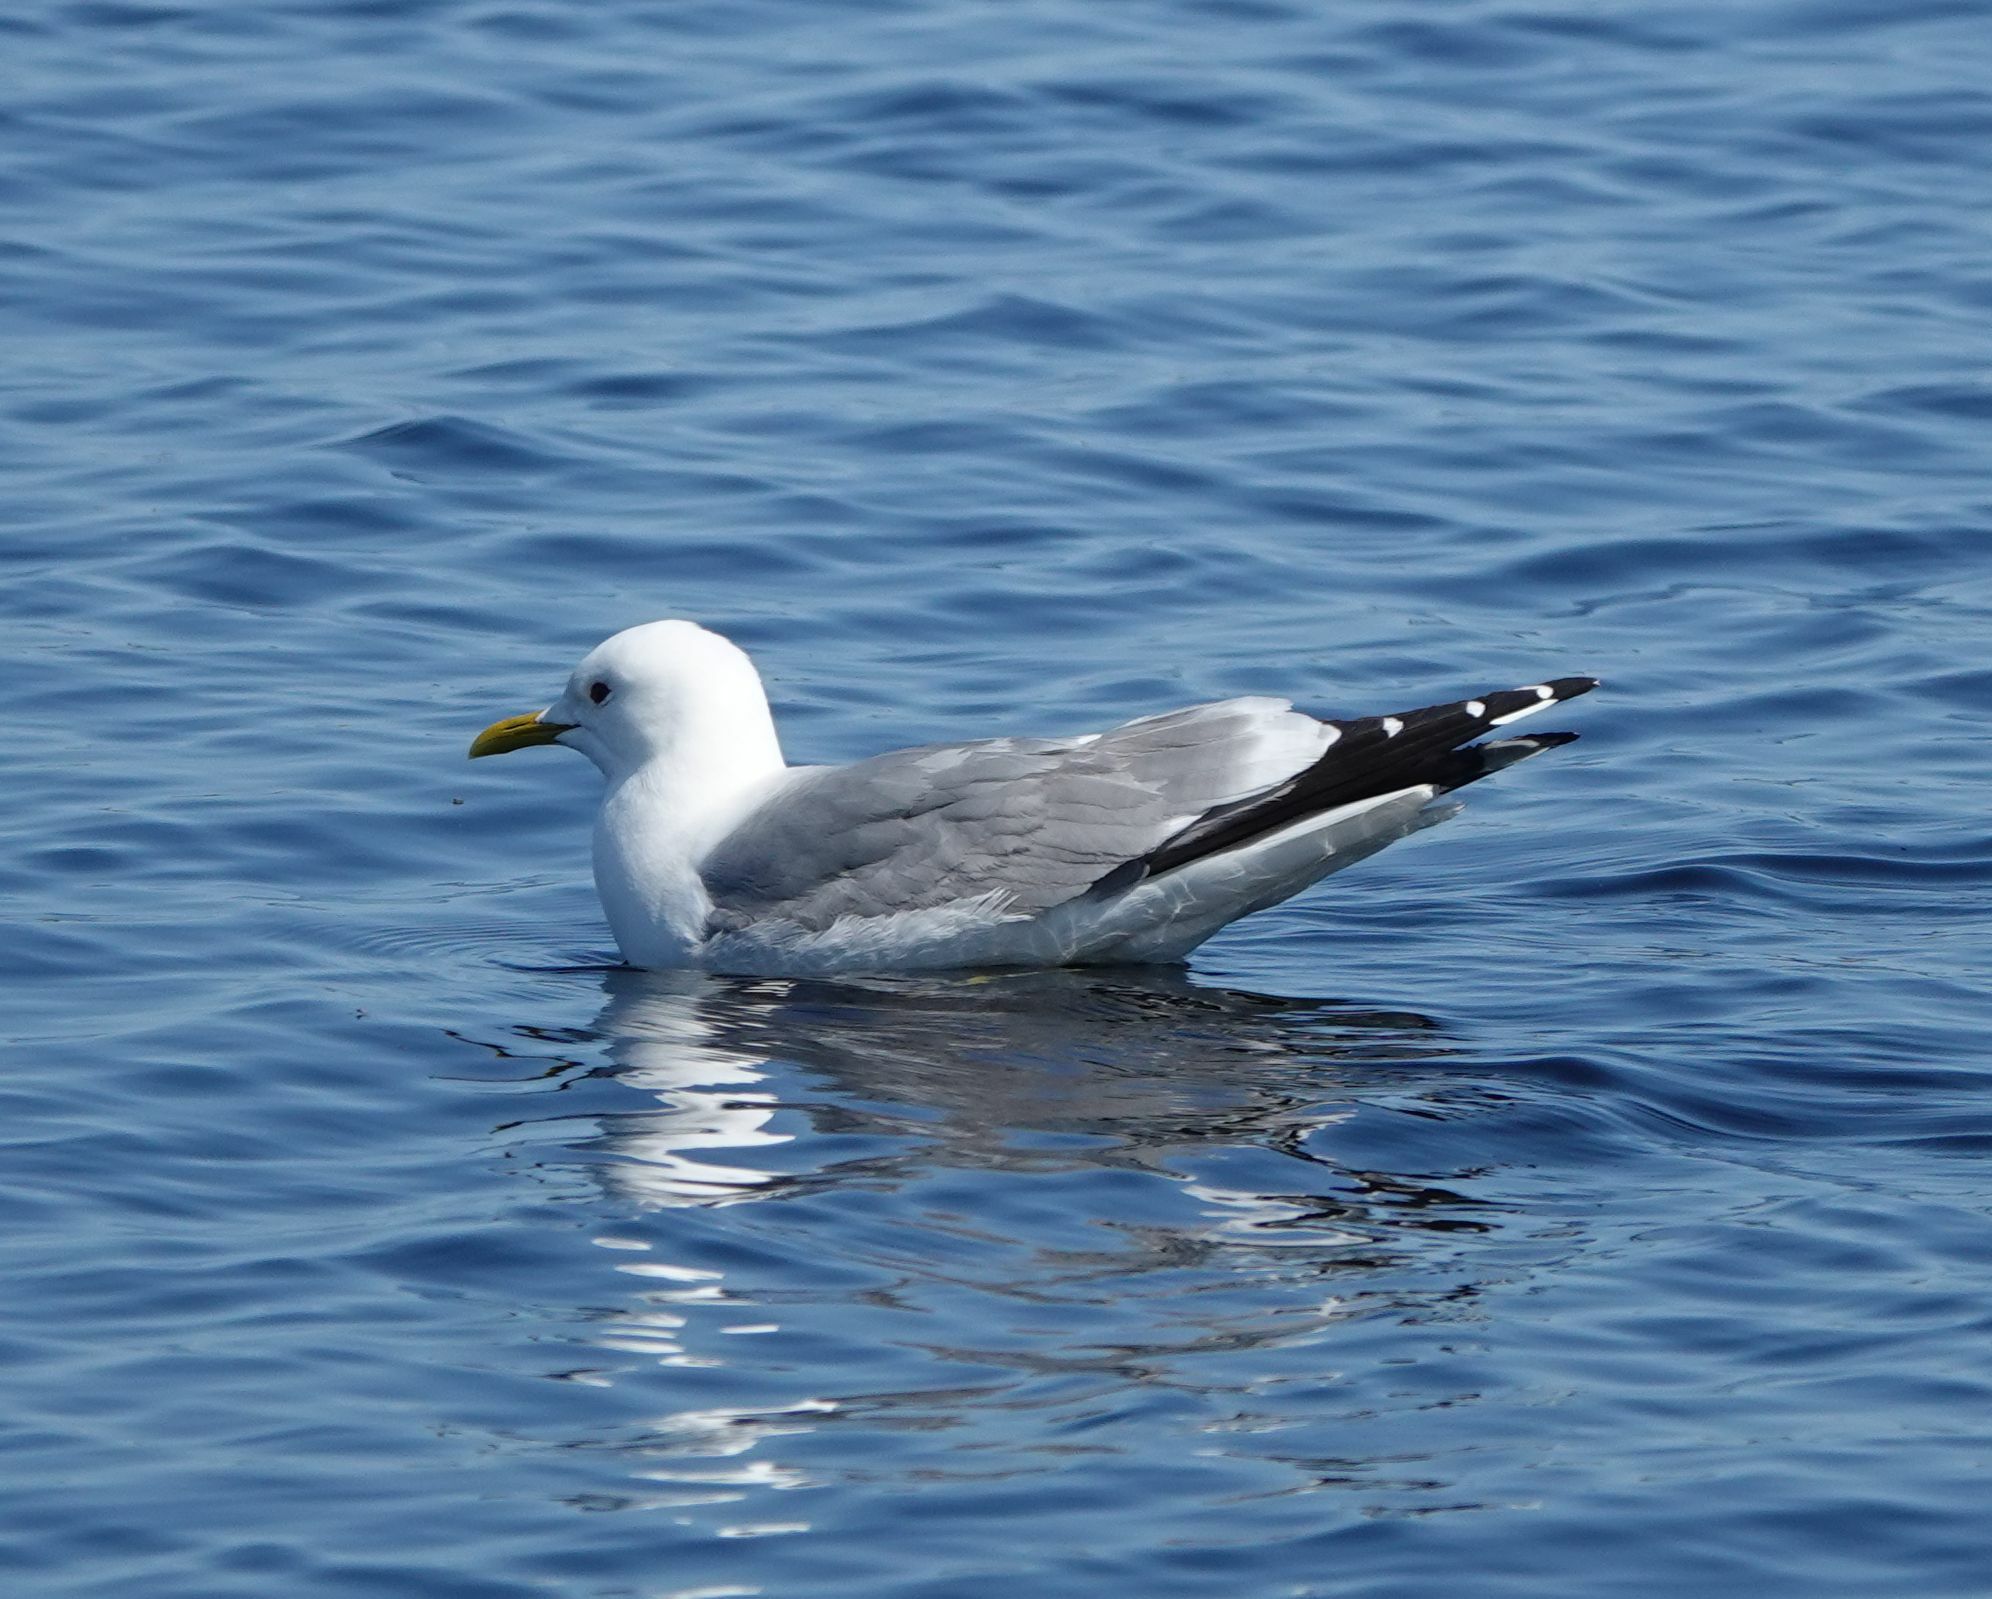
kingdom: Animalia
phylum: Chordata
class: Aves
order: Charadriiformes
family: Laridae
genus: Larus
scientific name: Larus canus
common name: Mew gull
